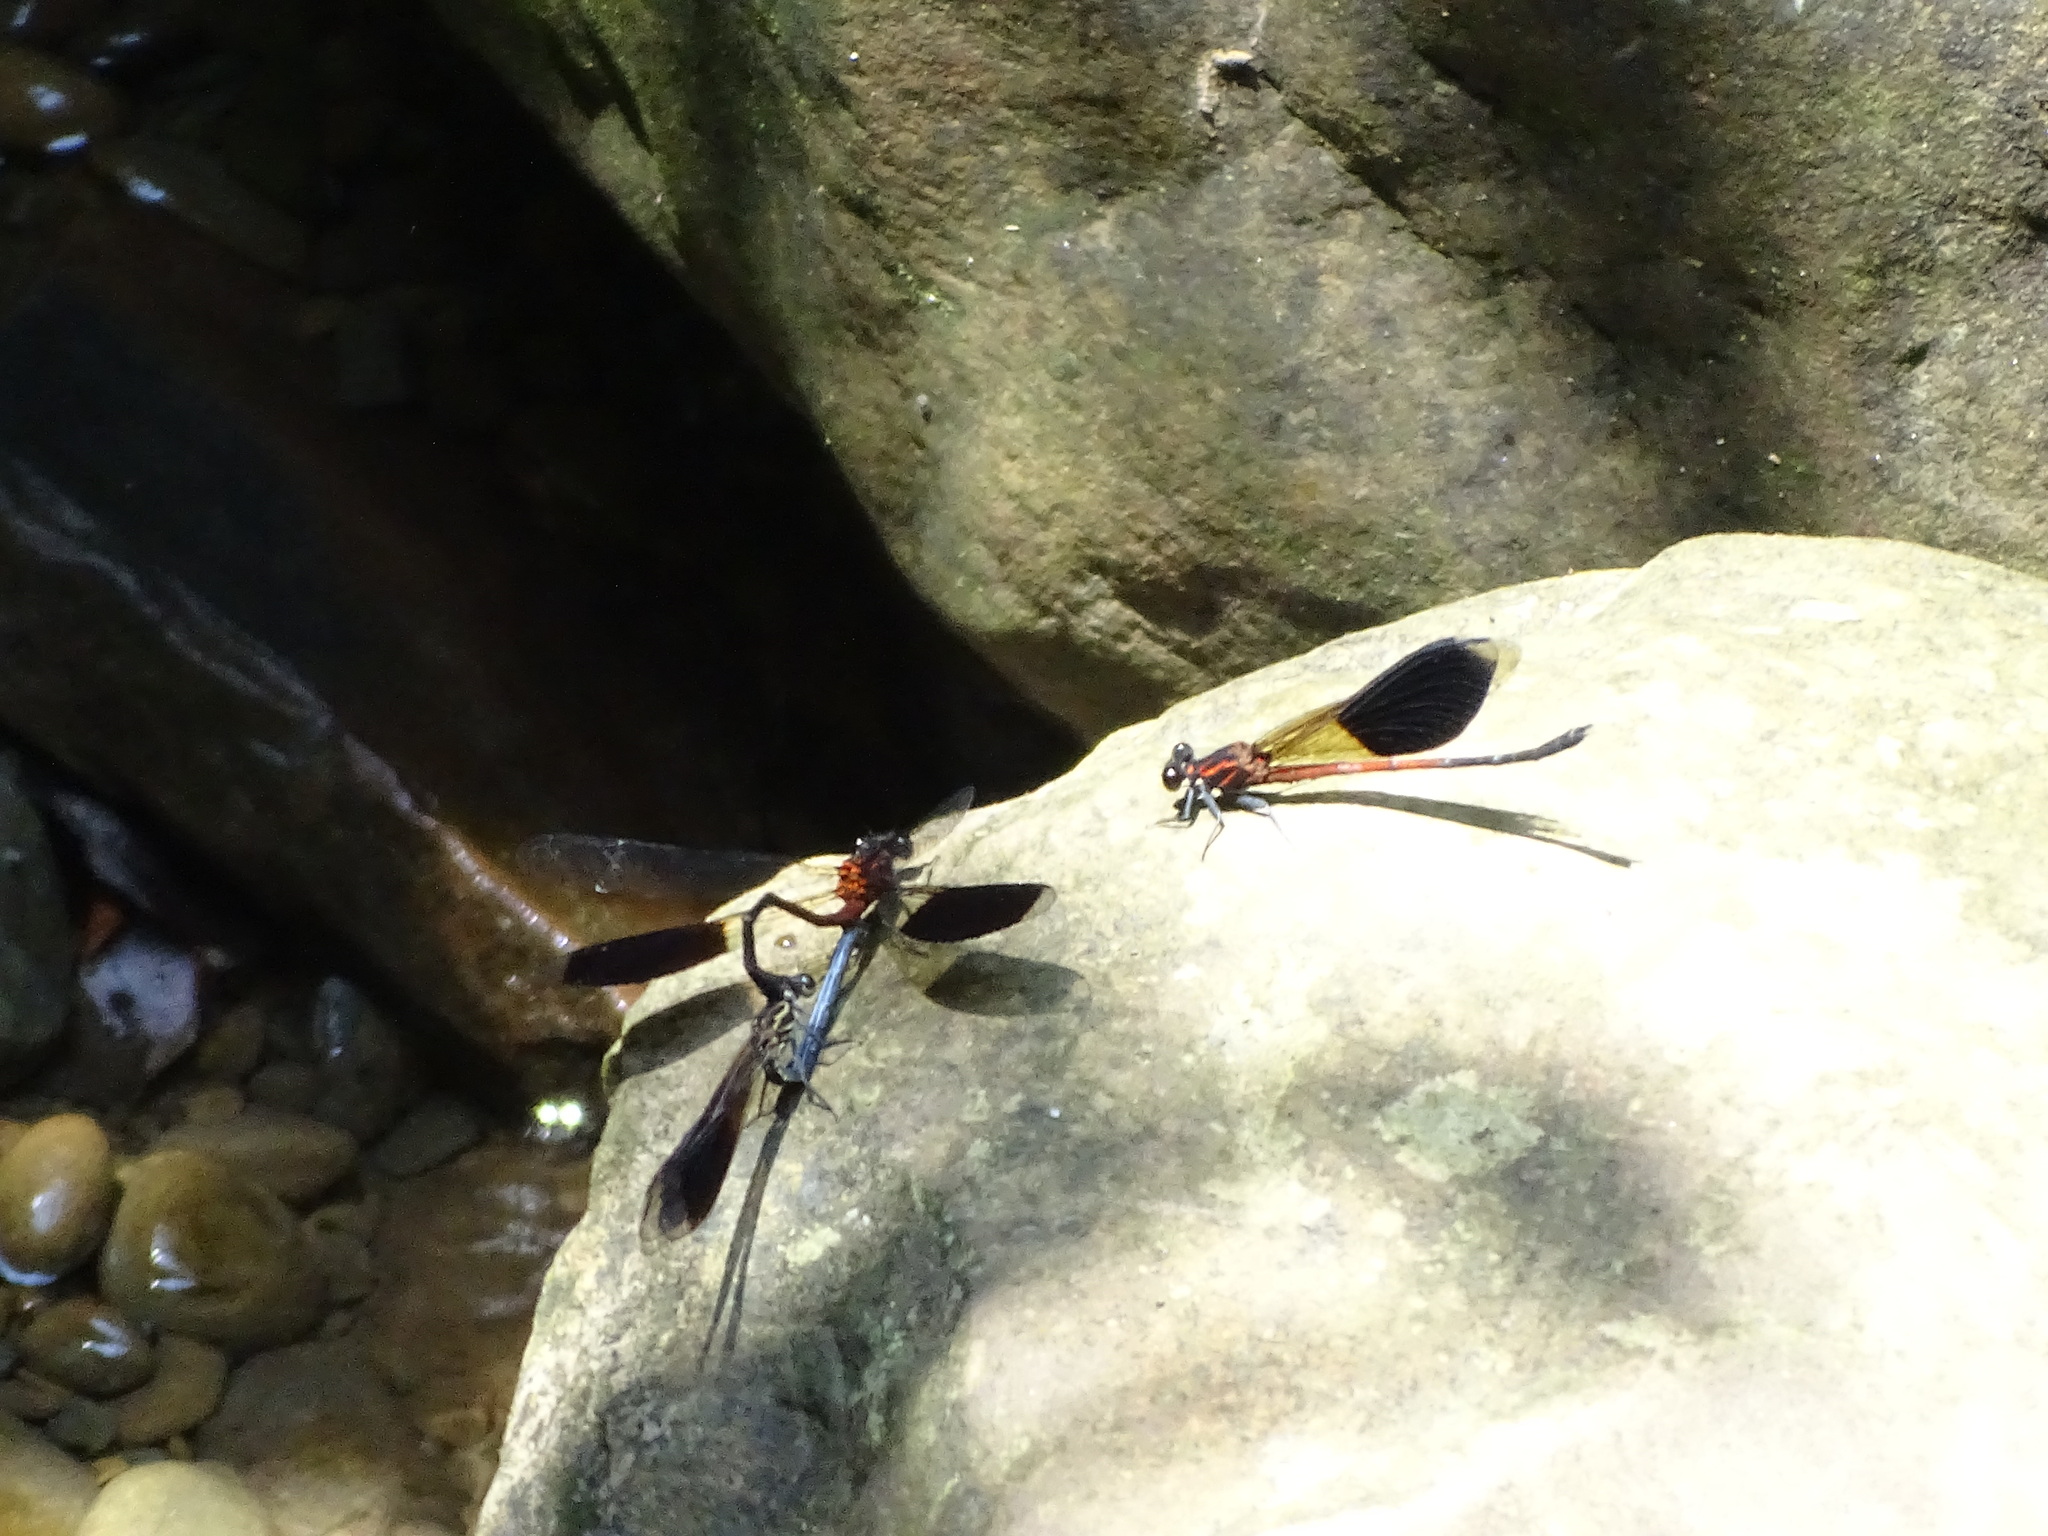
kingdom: Animalia
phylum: Arthropoda
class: Insecta
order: Odonata
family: Euphaeidae
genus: Euphaea
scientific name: Euphaea formosa
